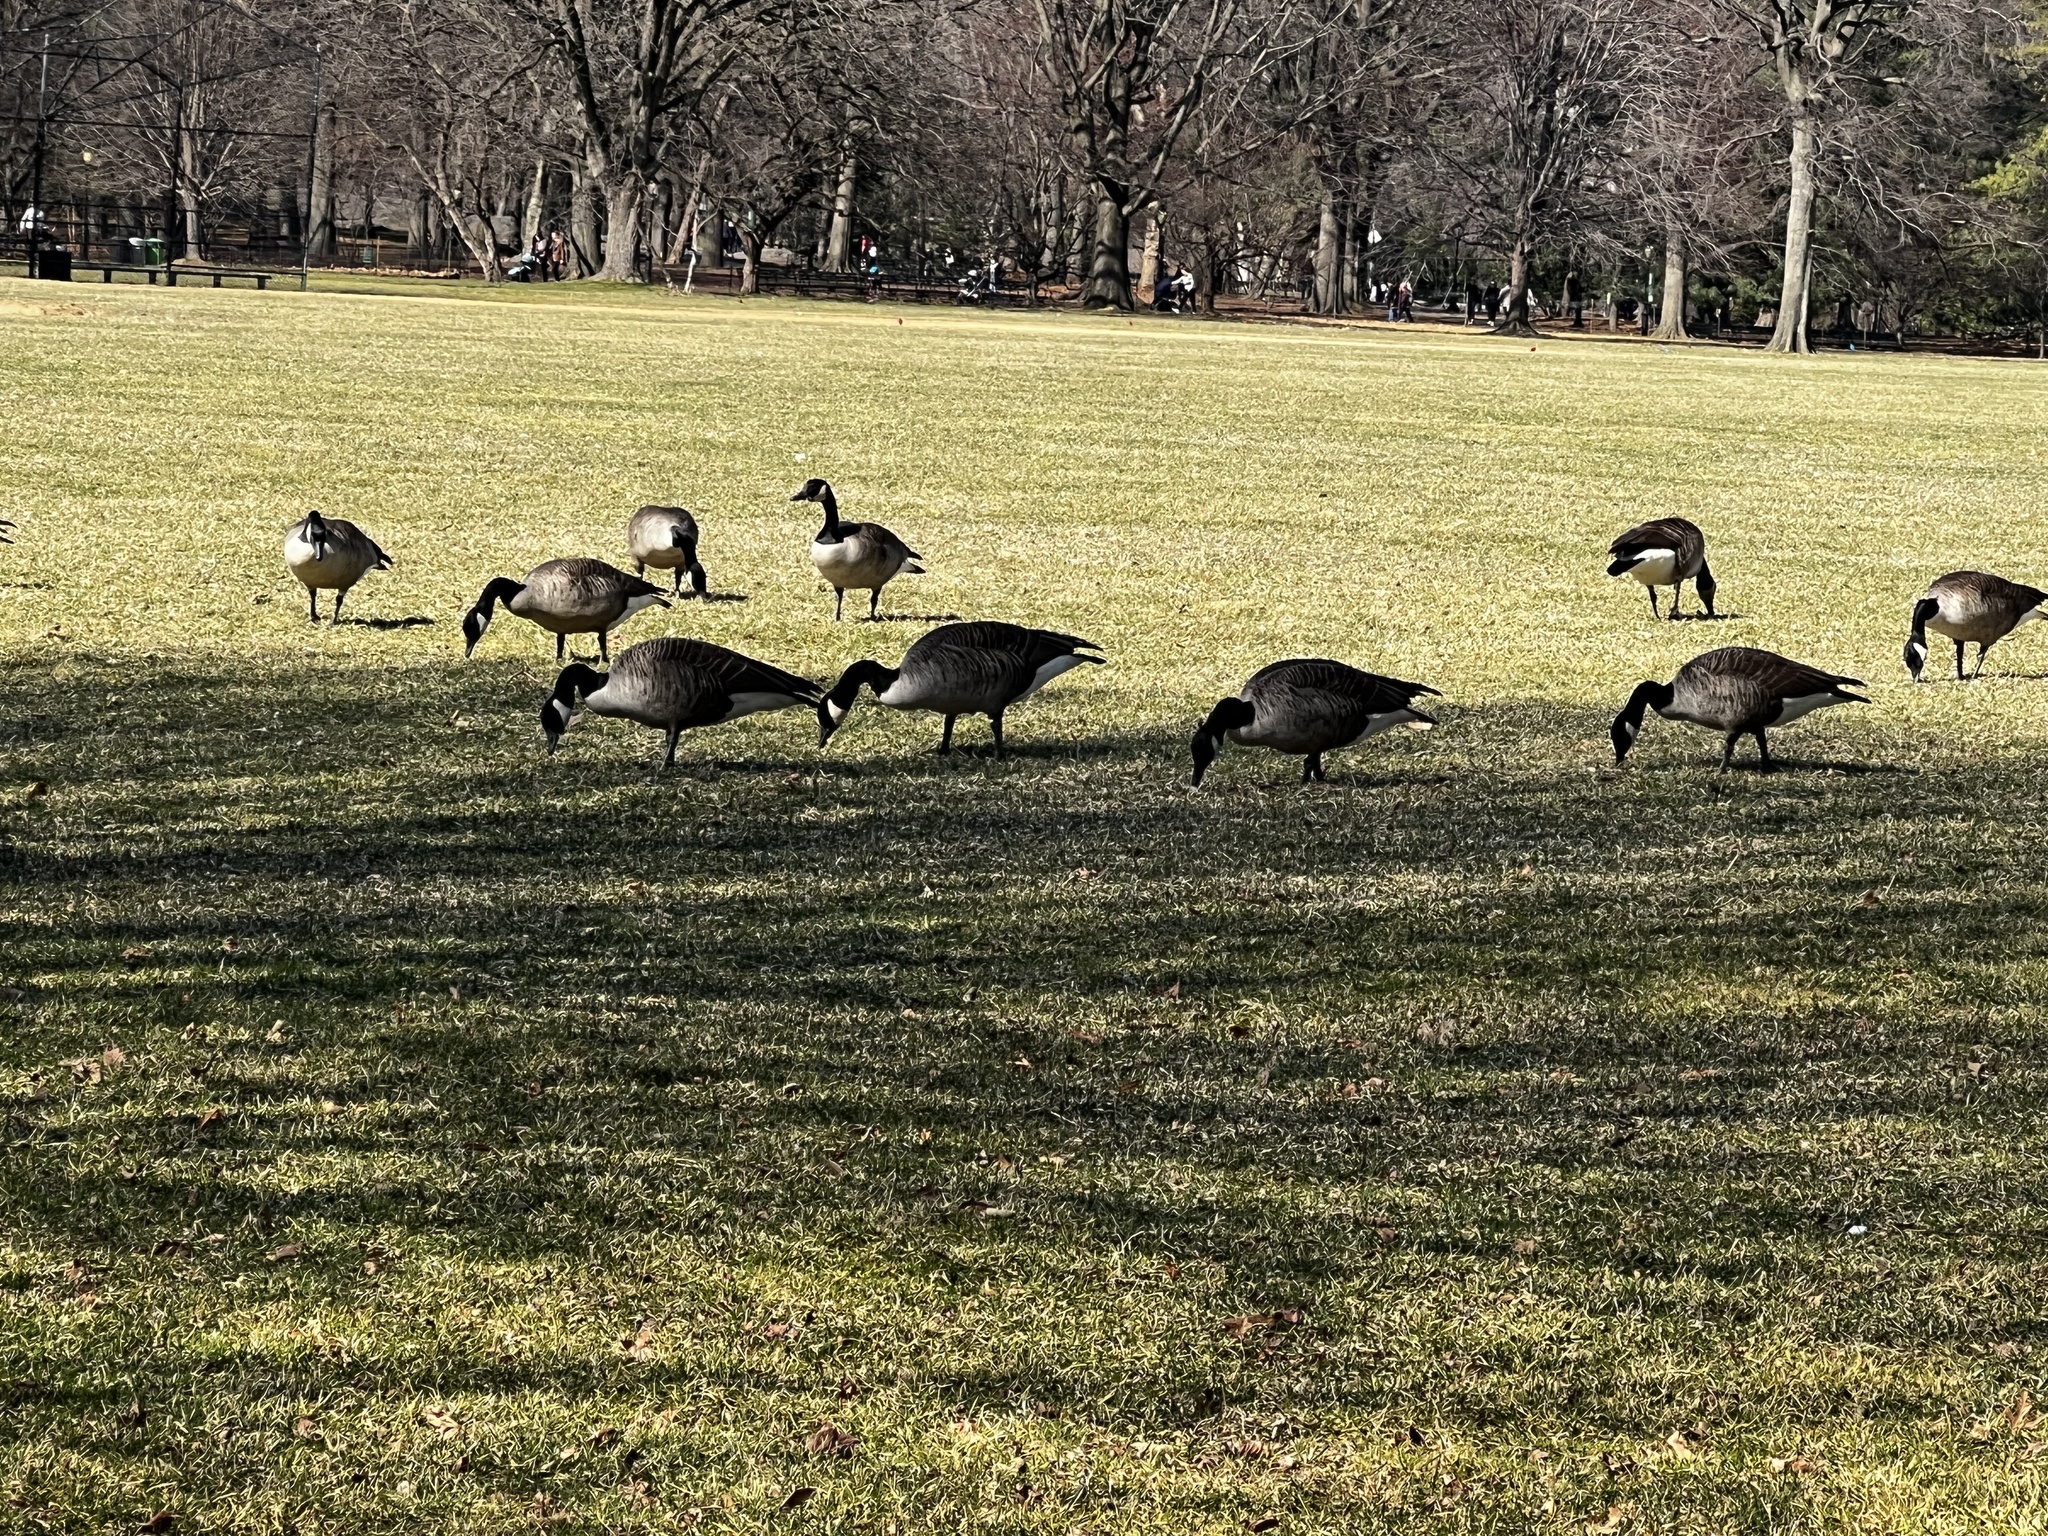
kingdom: Animalia
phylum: Chordata
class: Aves
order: Anseriformes
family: Anatidae
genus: Branta
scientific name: Branta canadensis
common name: Canada goose
